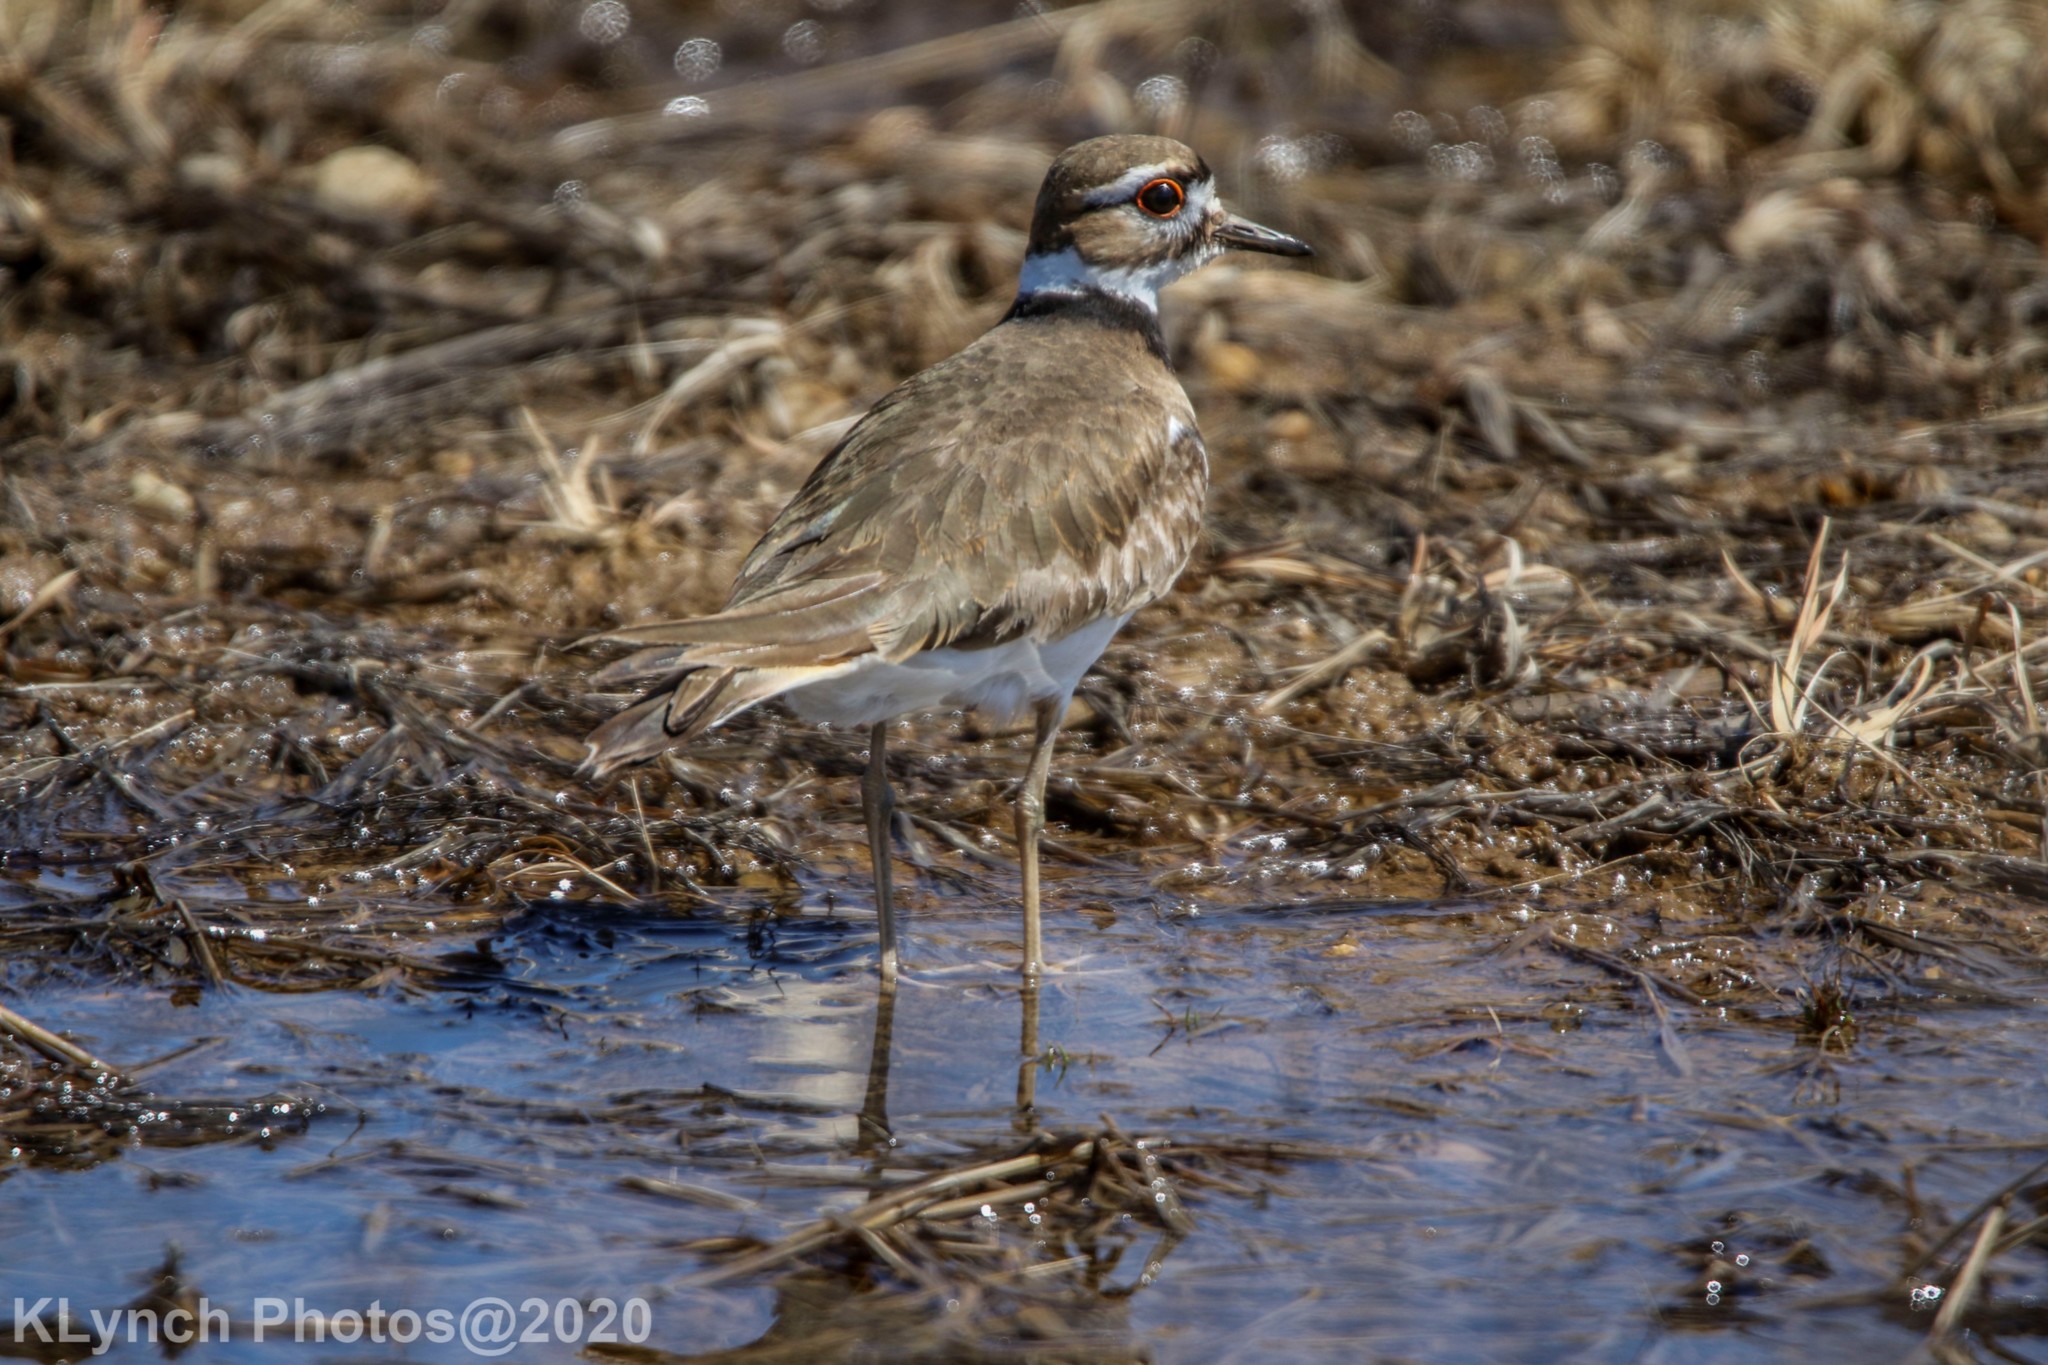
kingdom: Animalia
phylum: Chordata
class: Aves
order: Charadriiformes
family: Charadriidae
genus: Charadrius
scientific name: Charadrius vociferus
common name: Killdeer
